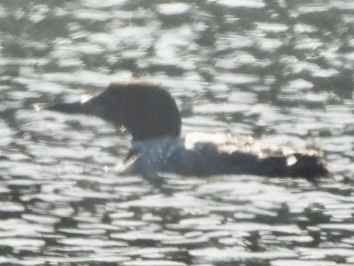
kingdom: Animalia
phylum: Chordata
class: Aves
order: Gaviiformes
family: Gaviidae
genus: Gavia
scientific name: Gavia immer
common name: Common loon
